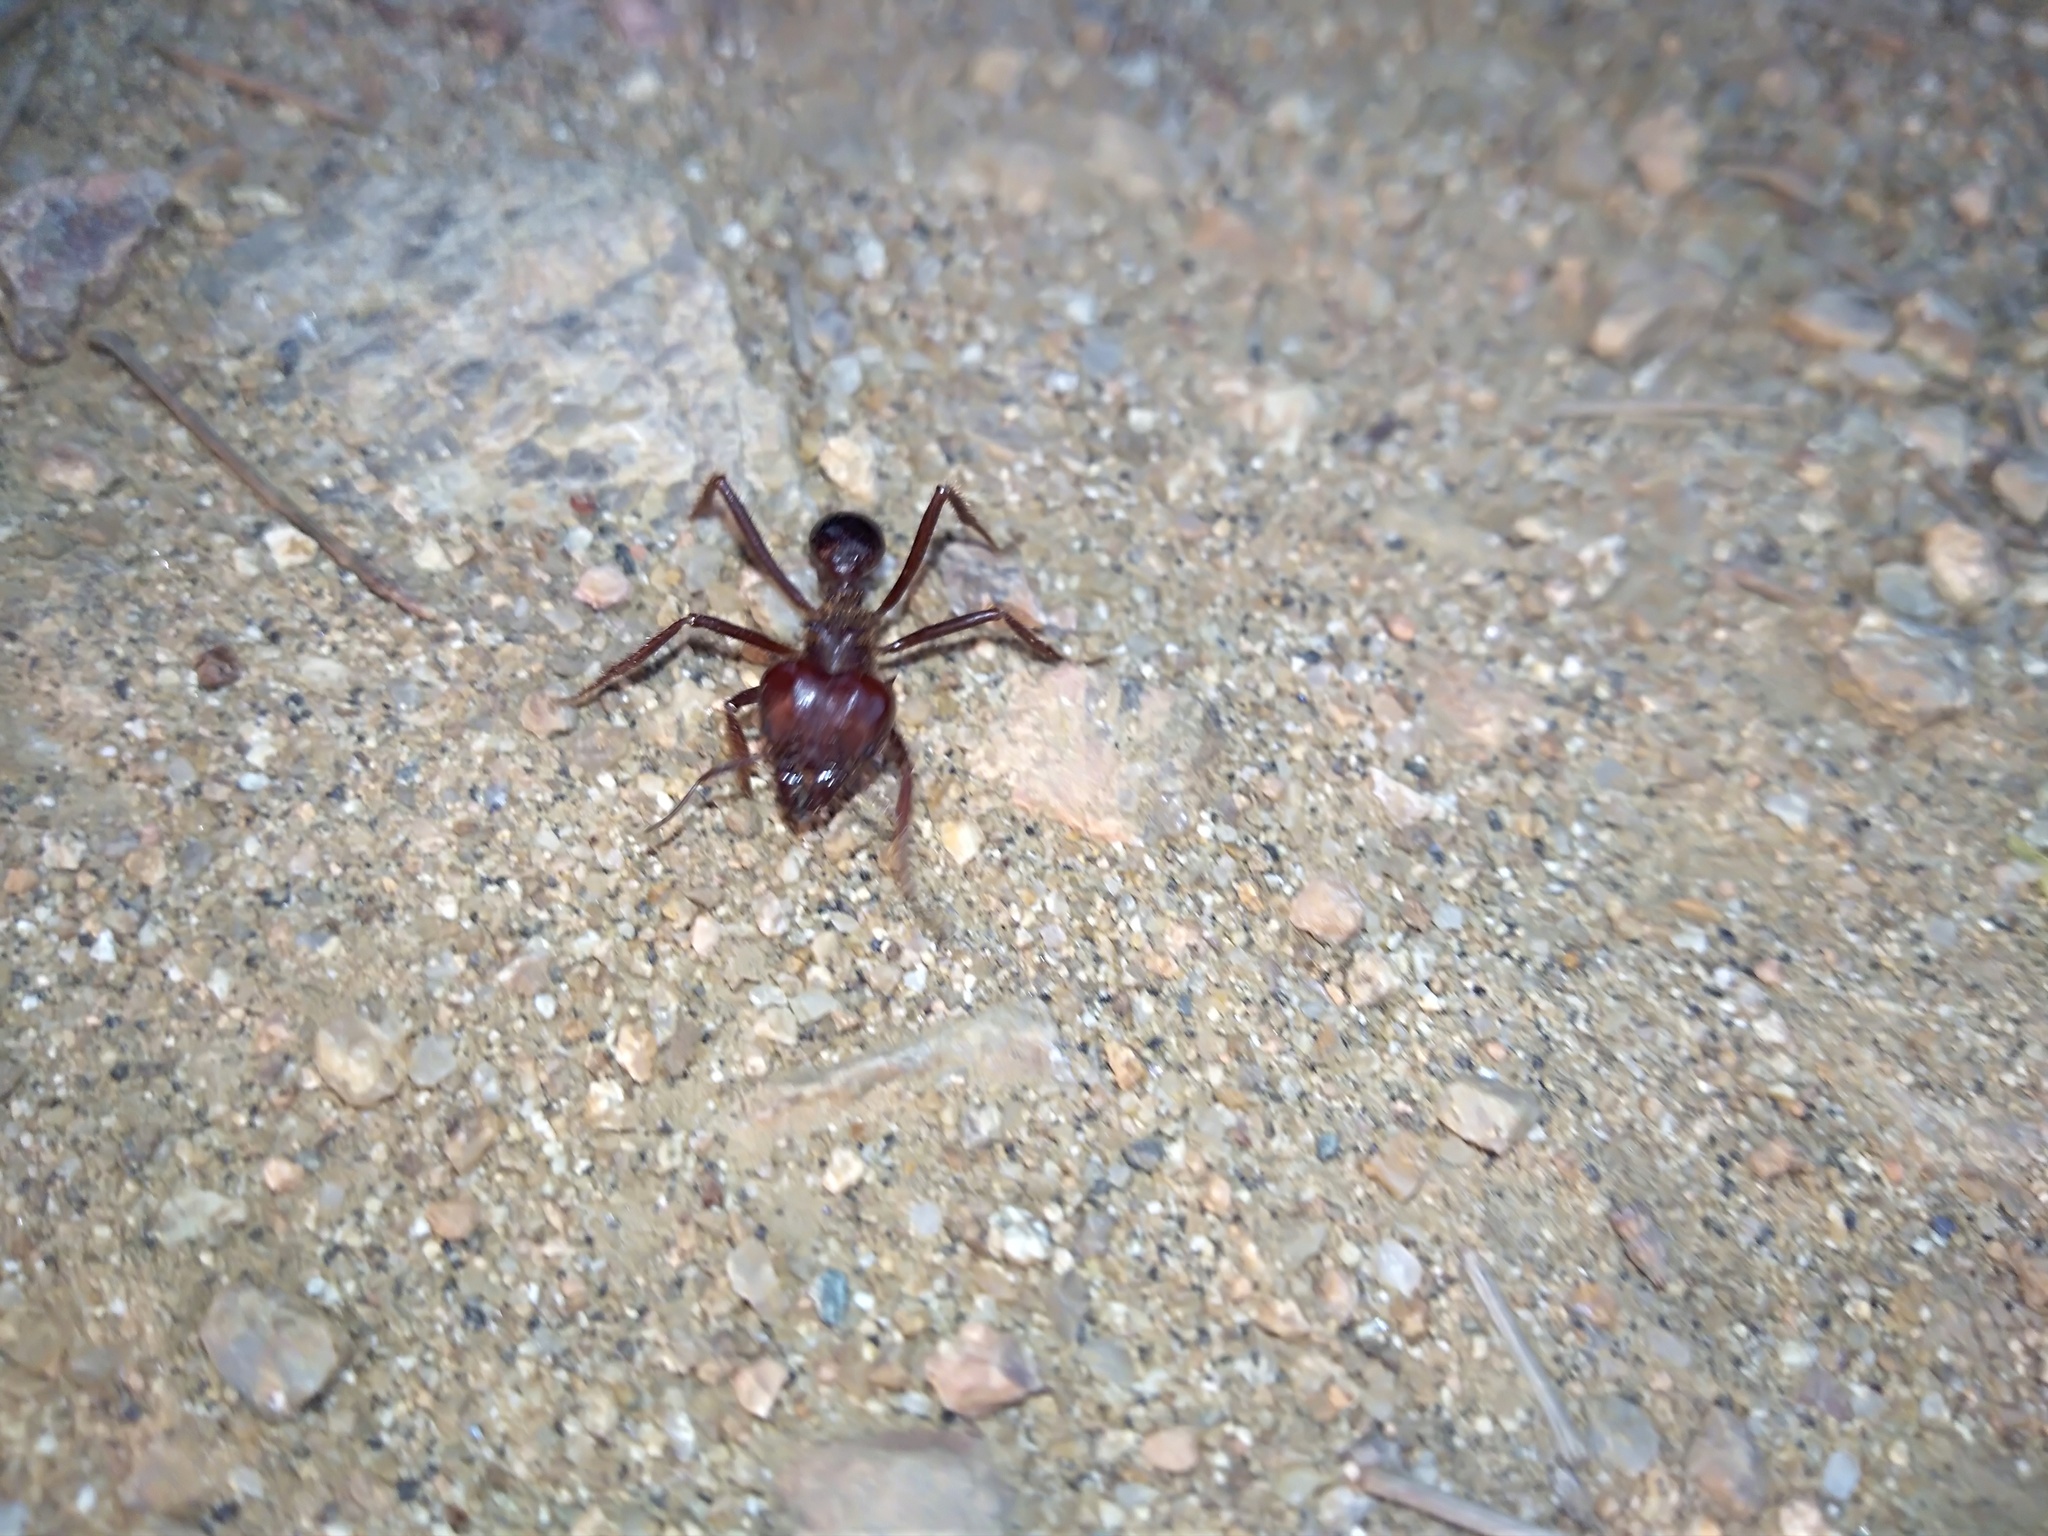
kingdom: Animalia
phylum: Arthropoda
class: Insecta
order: Hymenoptera
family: Formicidae
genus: Atta
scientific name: Atta mexicana
